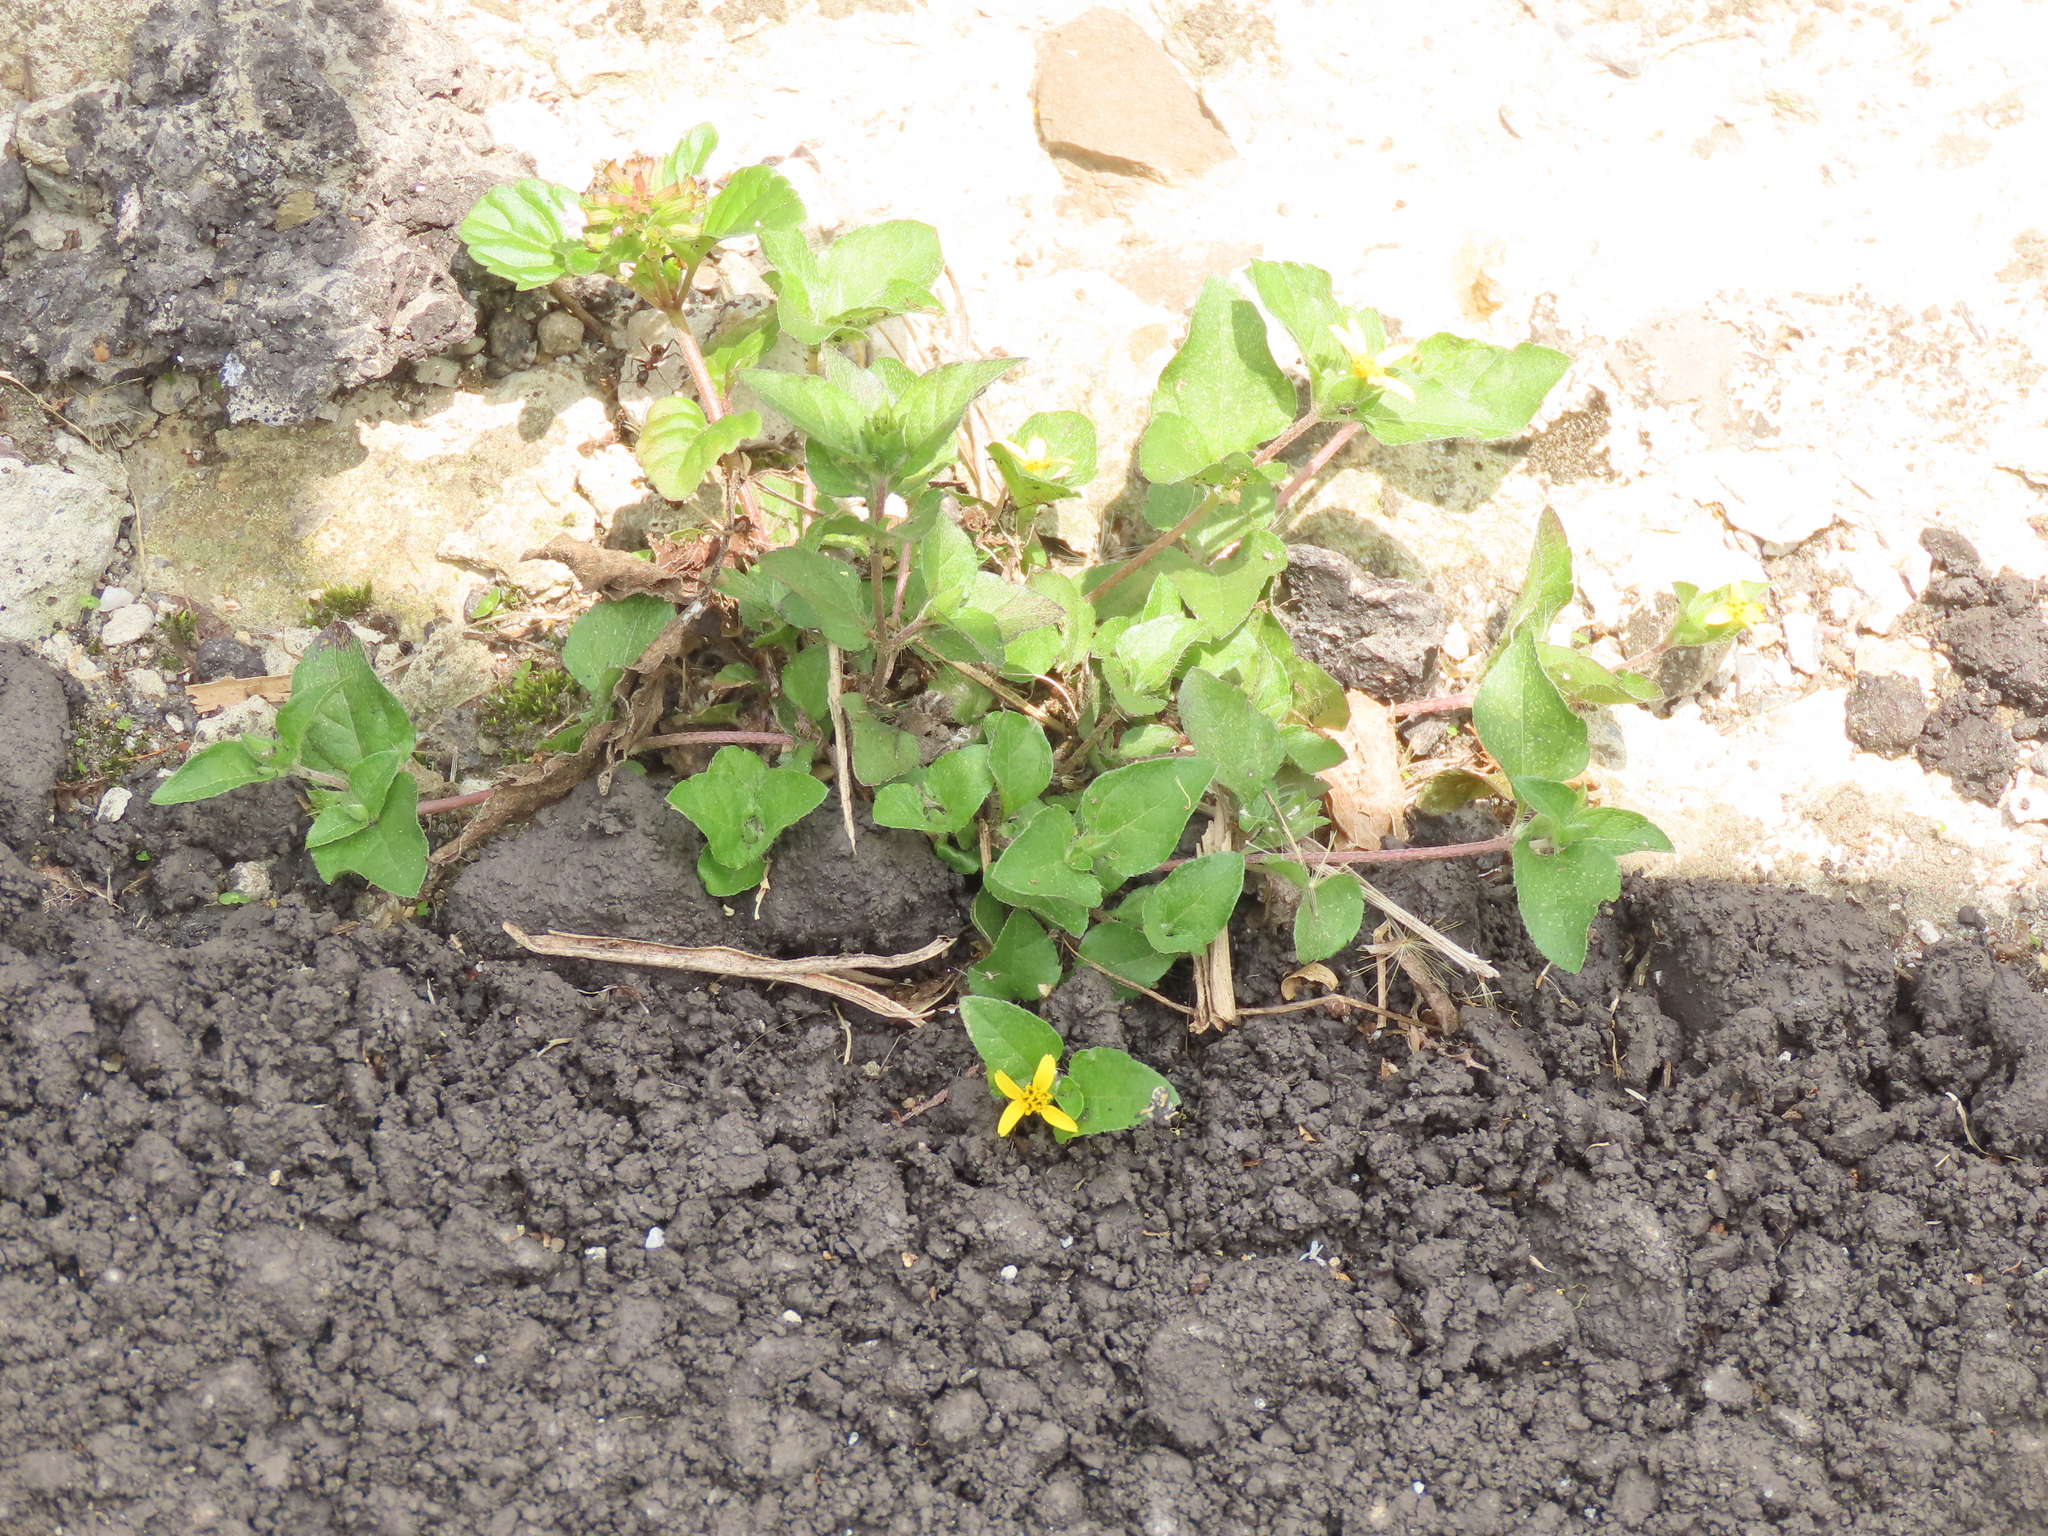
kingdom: Plantae
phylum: Tracheophyta
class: Magnoliopsida
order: Asterales
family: Asteraceae
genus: Calyptocarpus
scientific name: Calyptocarpus vialis
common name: Straggler daisy
